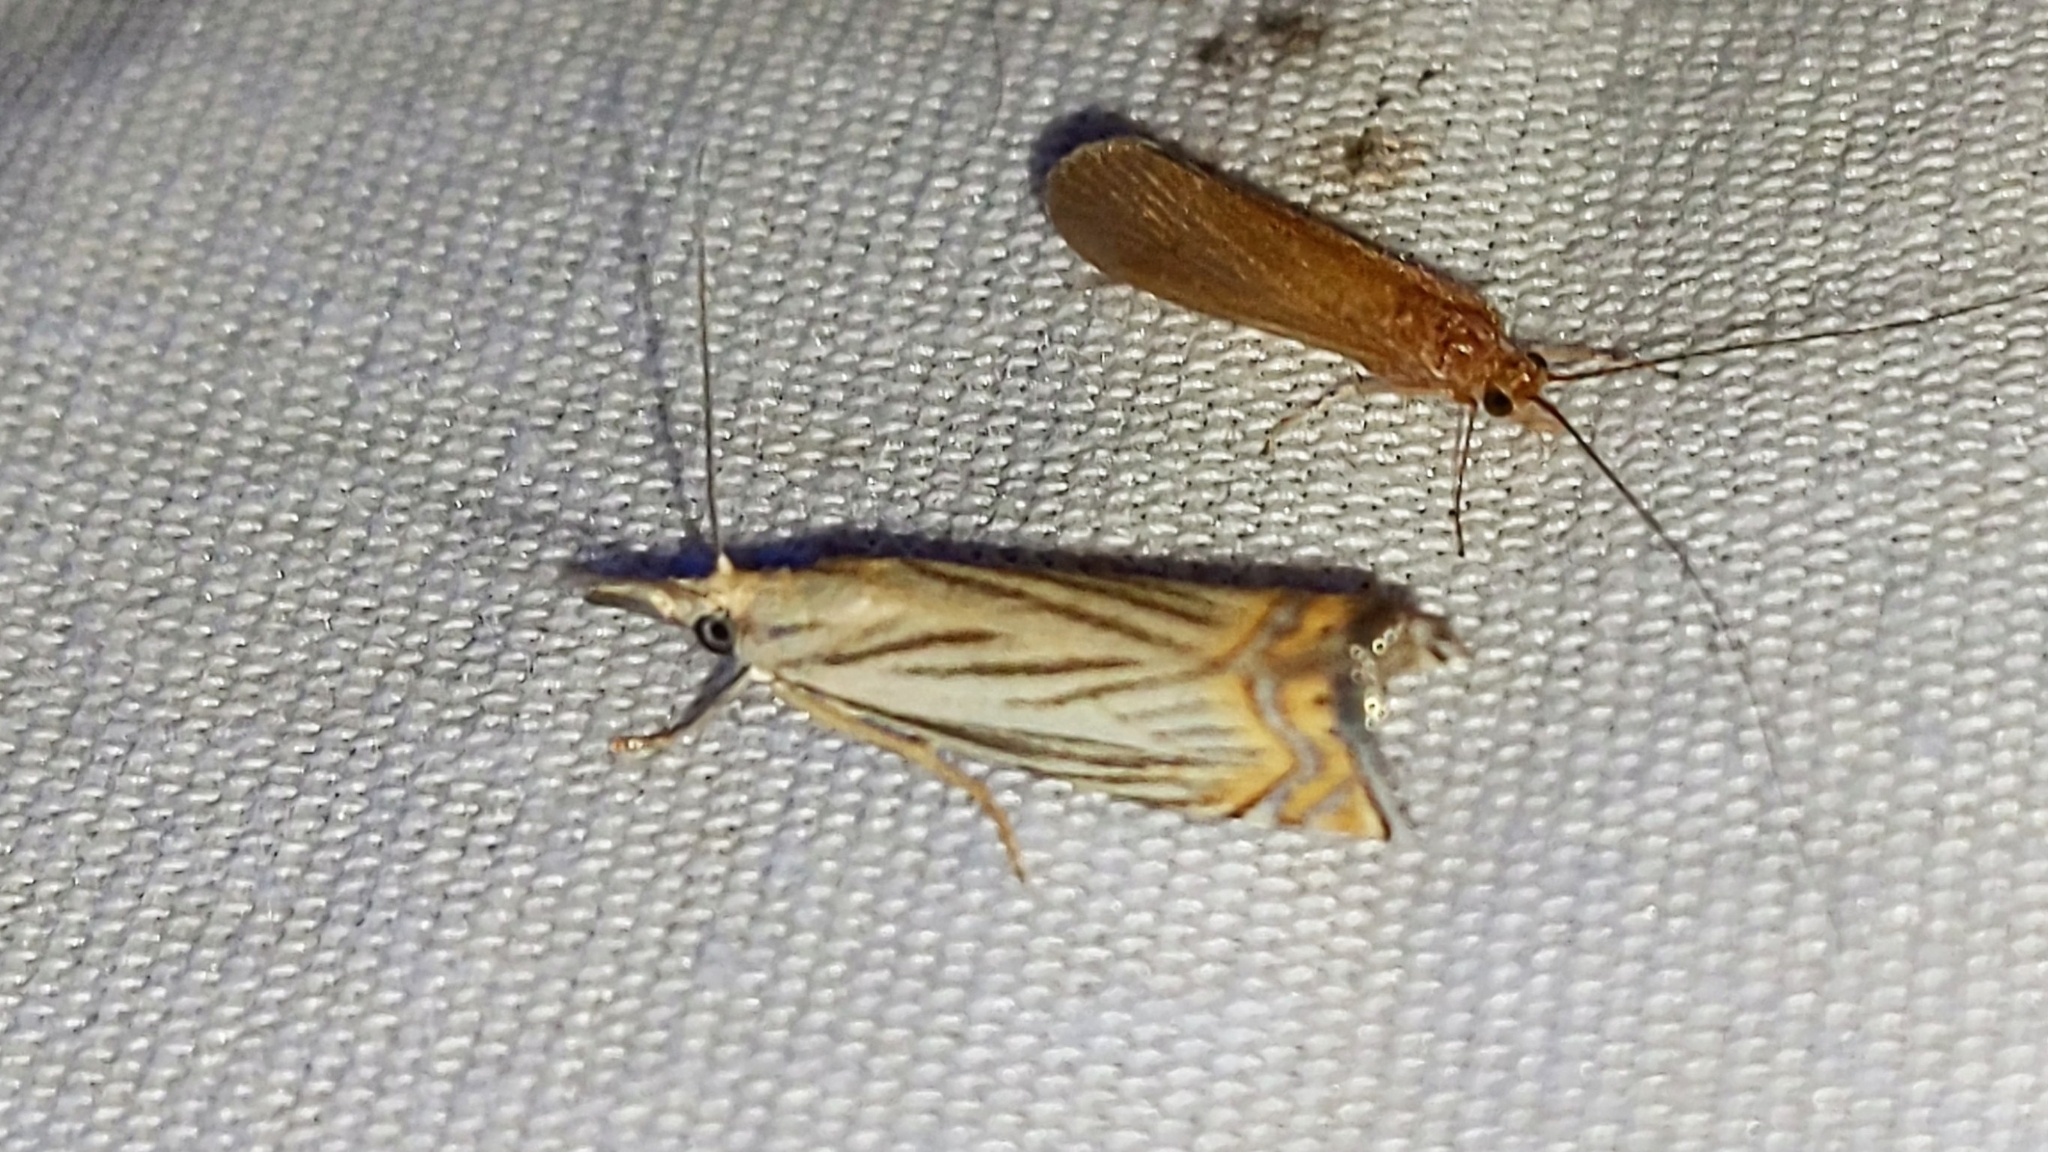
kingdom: Animalia
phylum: Arthropoda
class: Insecta
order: Lepidoptera
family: Crambidae
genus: Chrysoteuchia
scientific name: Chrysoteuchia topiarius
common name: Topiary grass-veneer
